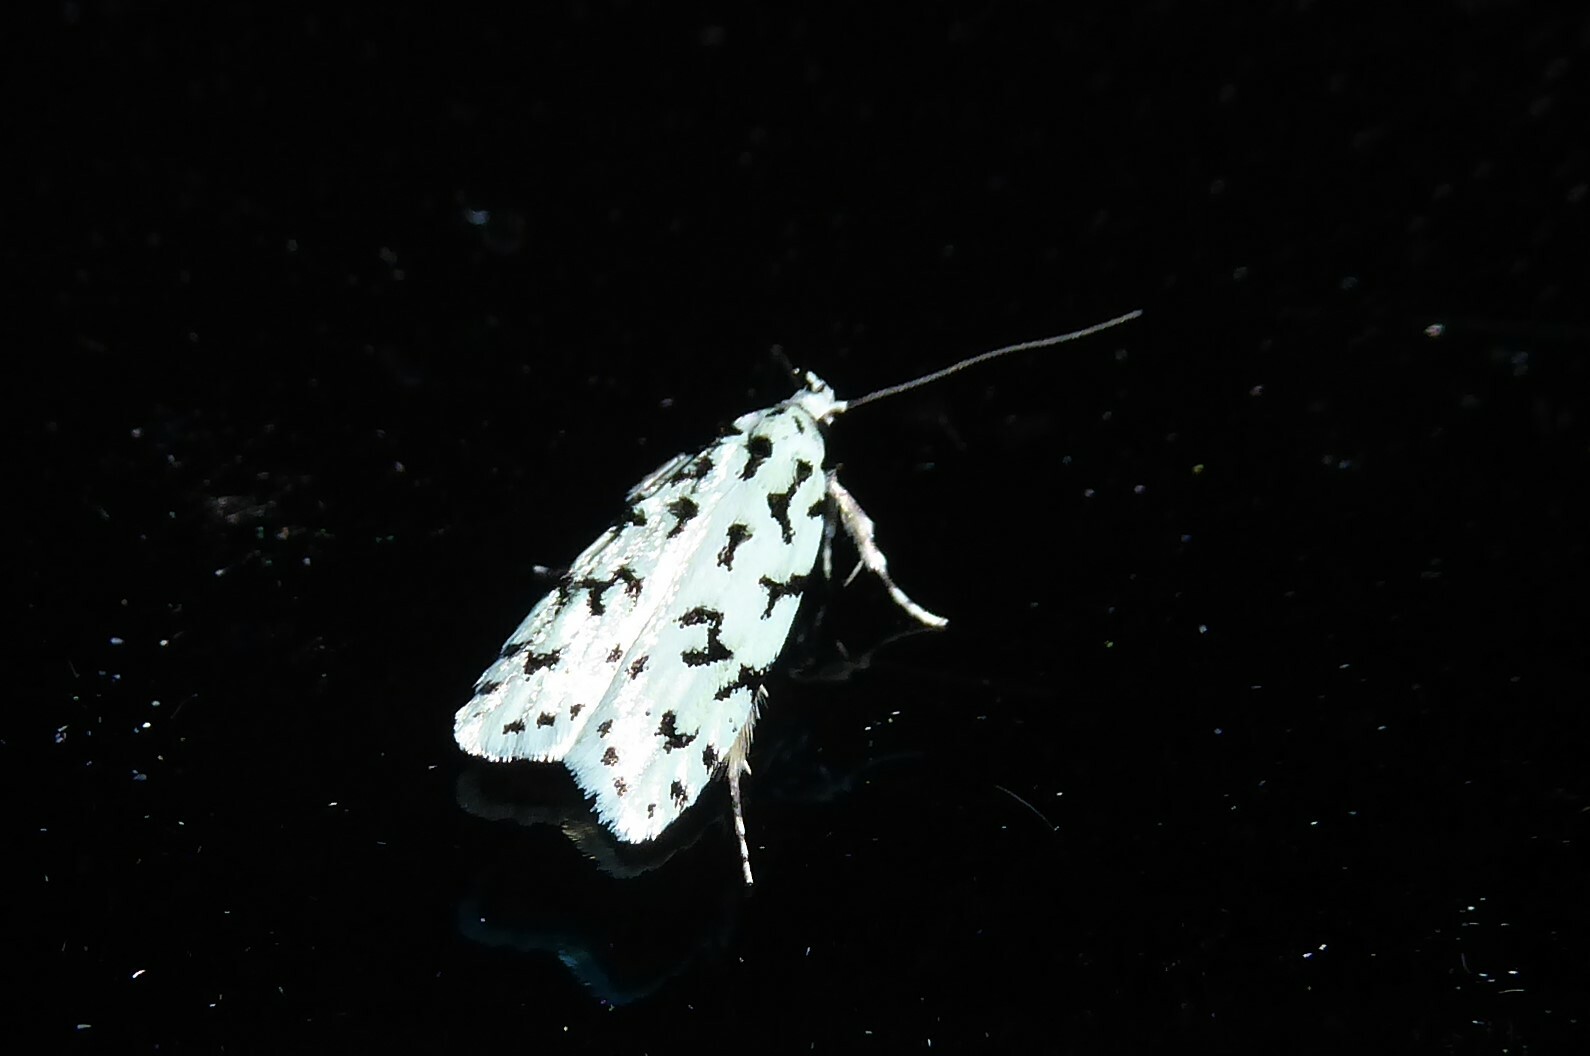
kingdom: Animalia
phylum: Arthropoda
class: Insecta
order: Lepidoptera
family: Oecophoridae
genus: Izatha
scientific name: Izatha huttoni
